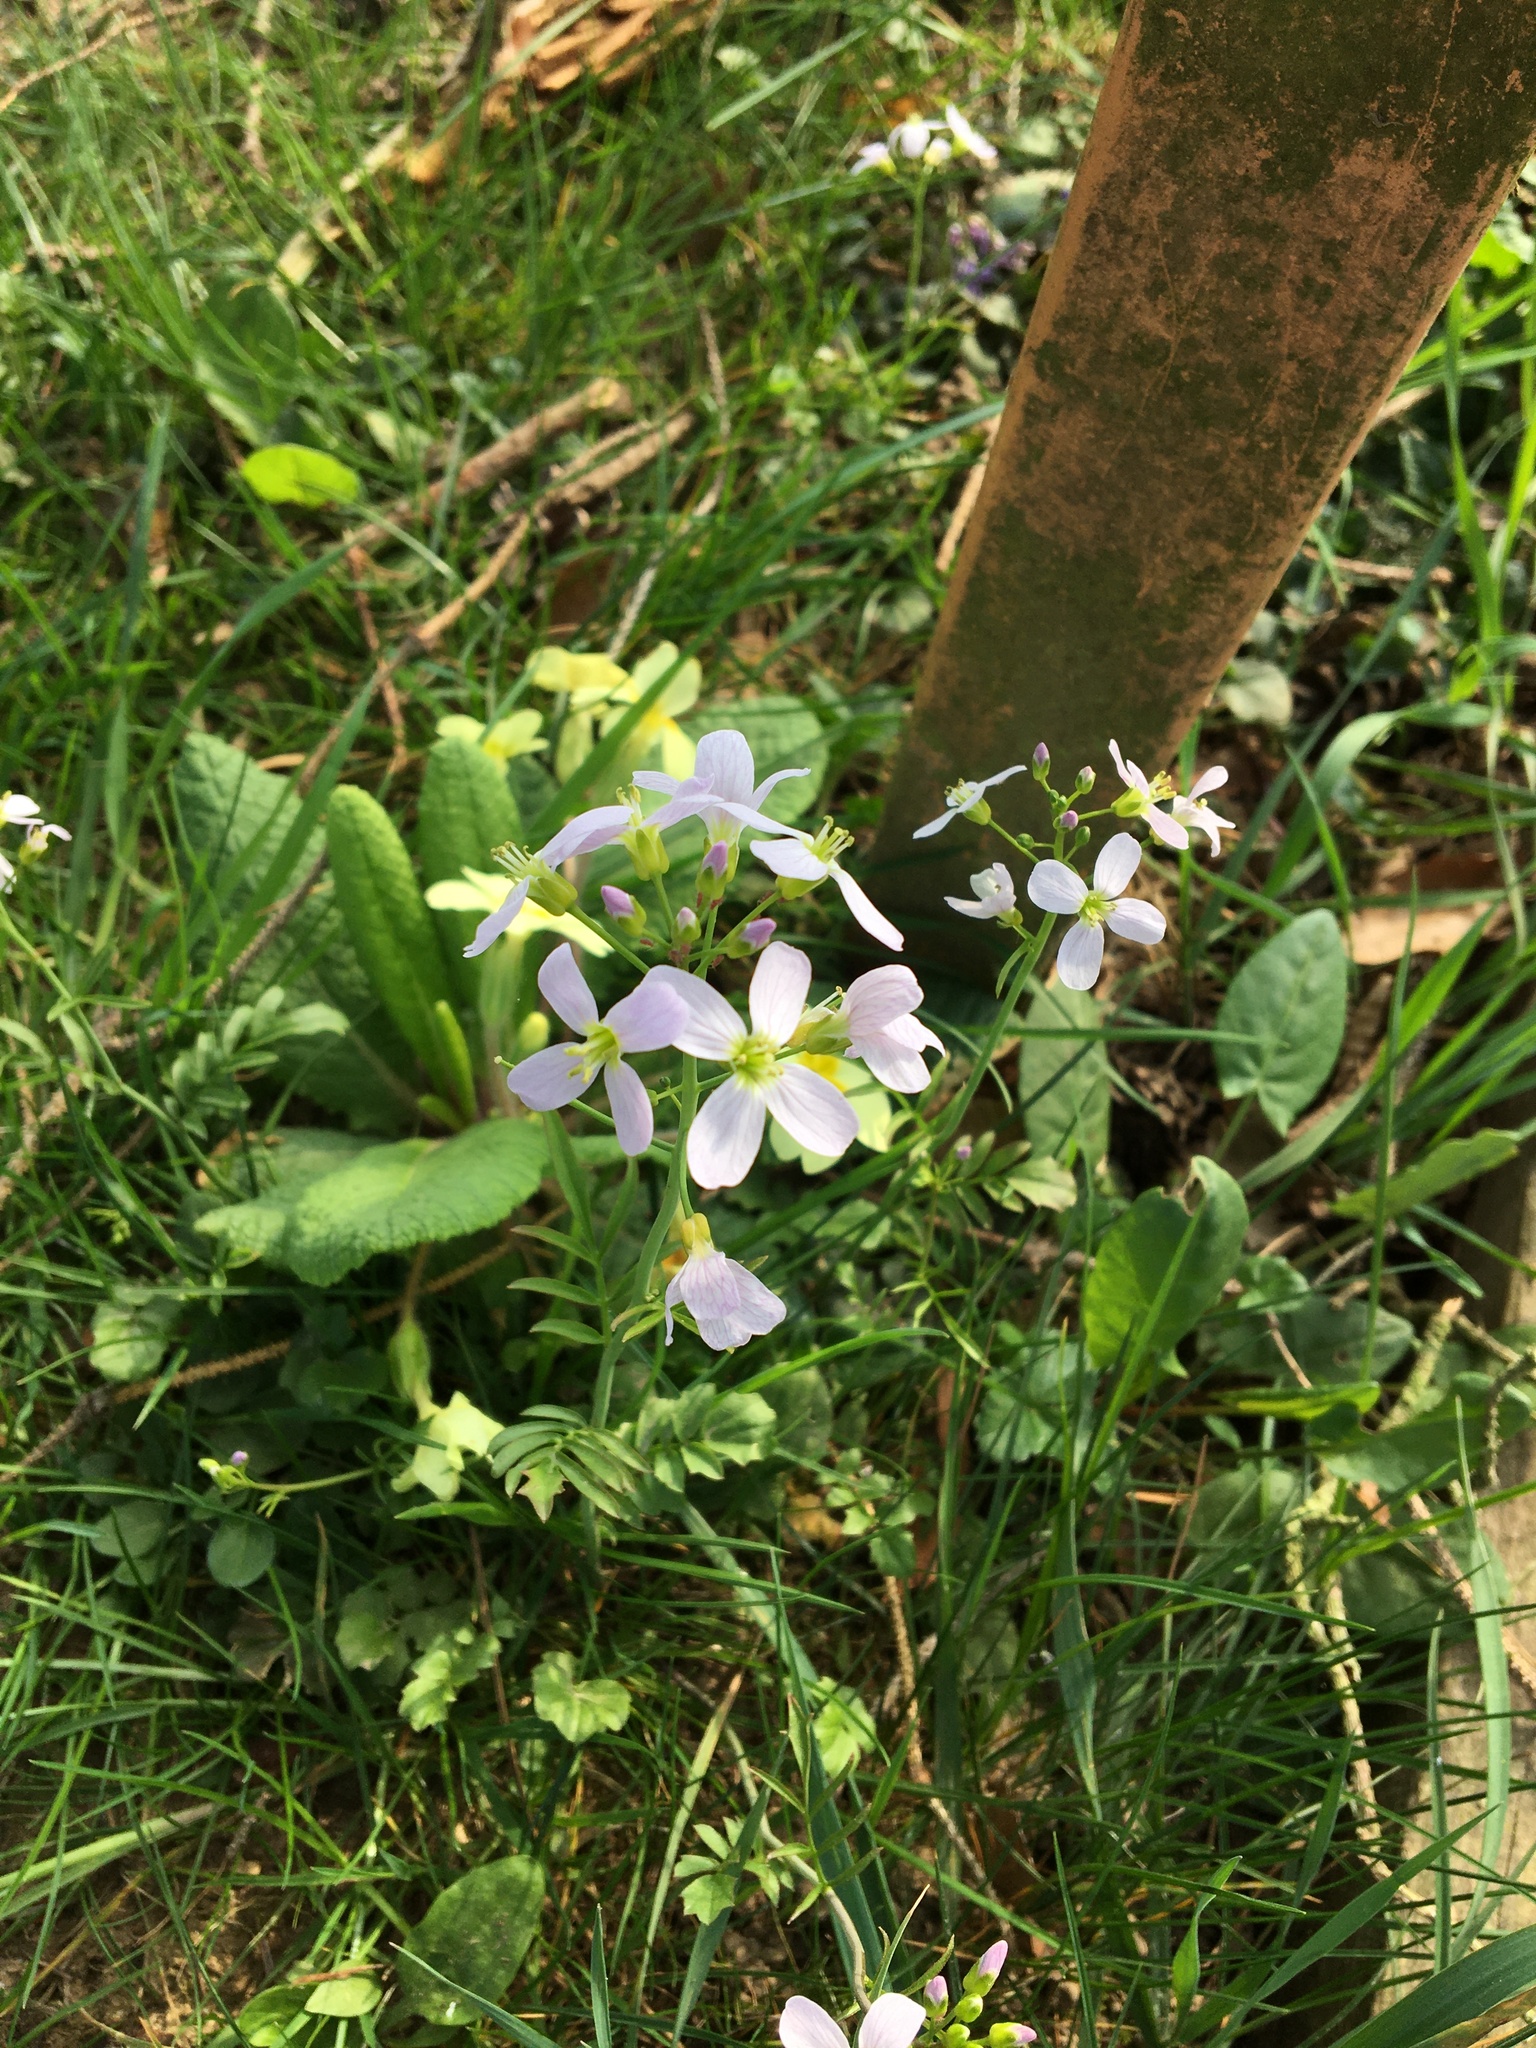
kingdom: Plantae
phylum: Tracheophyta
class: Magnoliopsida
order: Brassicales
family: Brassicaceae
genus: Cardamine
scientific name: Cardamine pratensis
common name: Cuckoo flower
